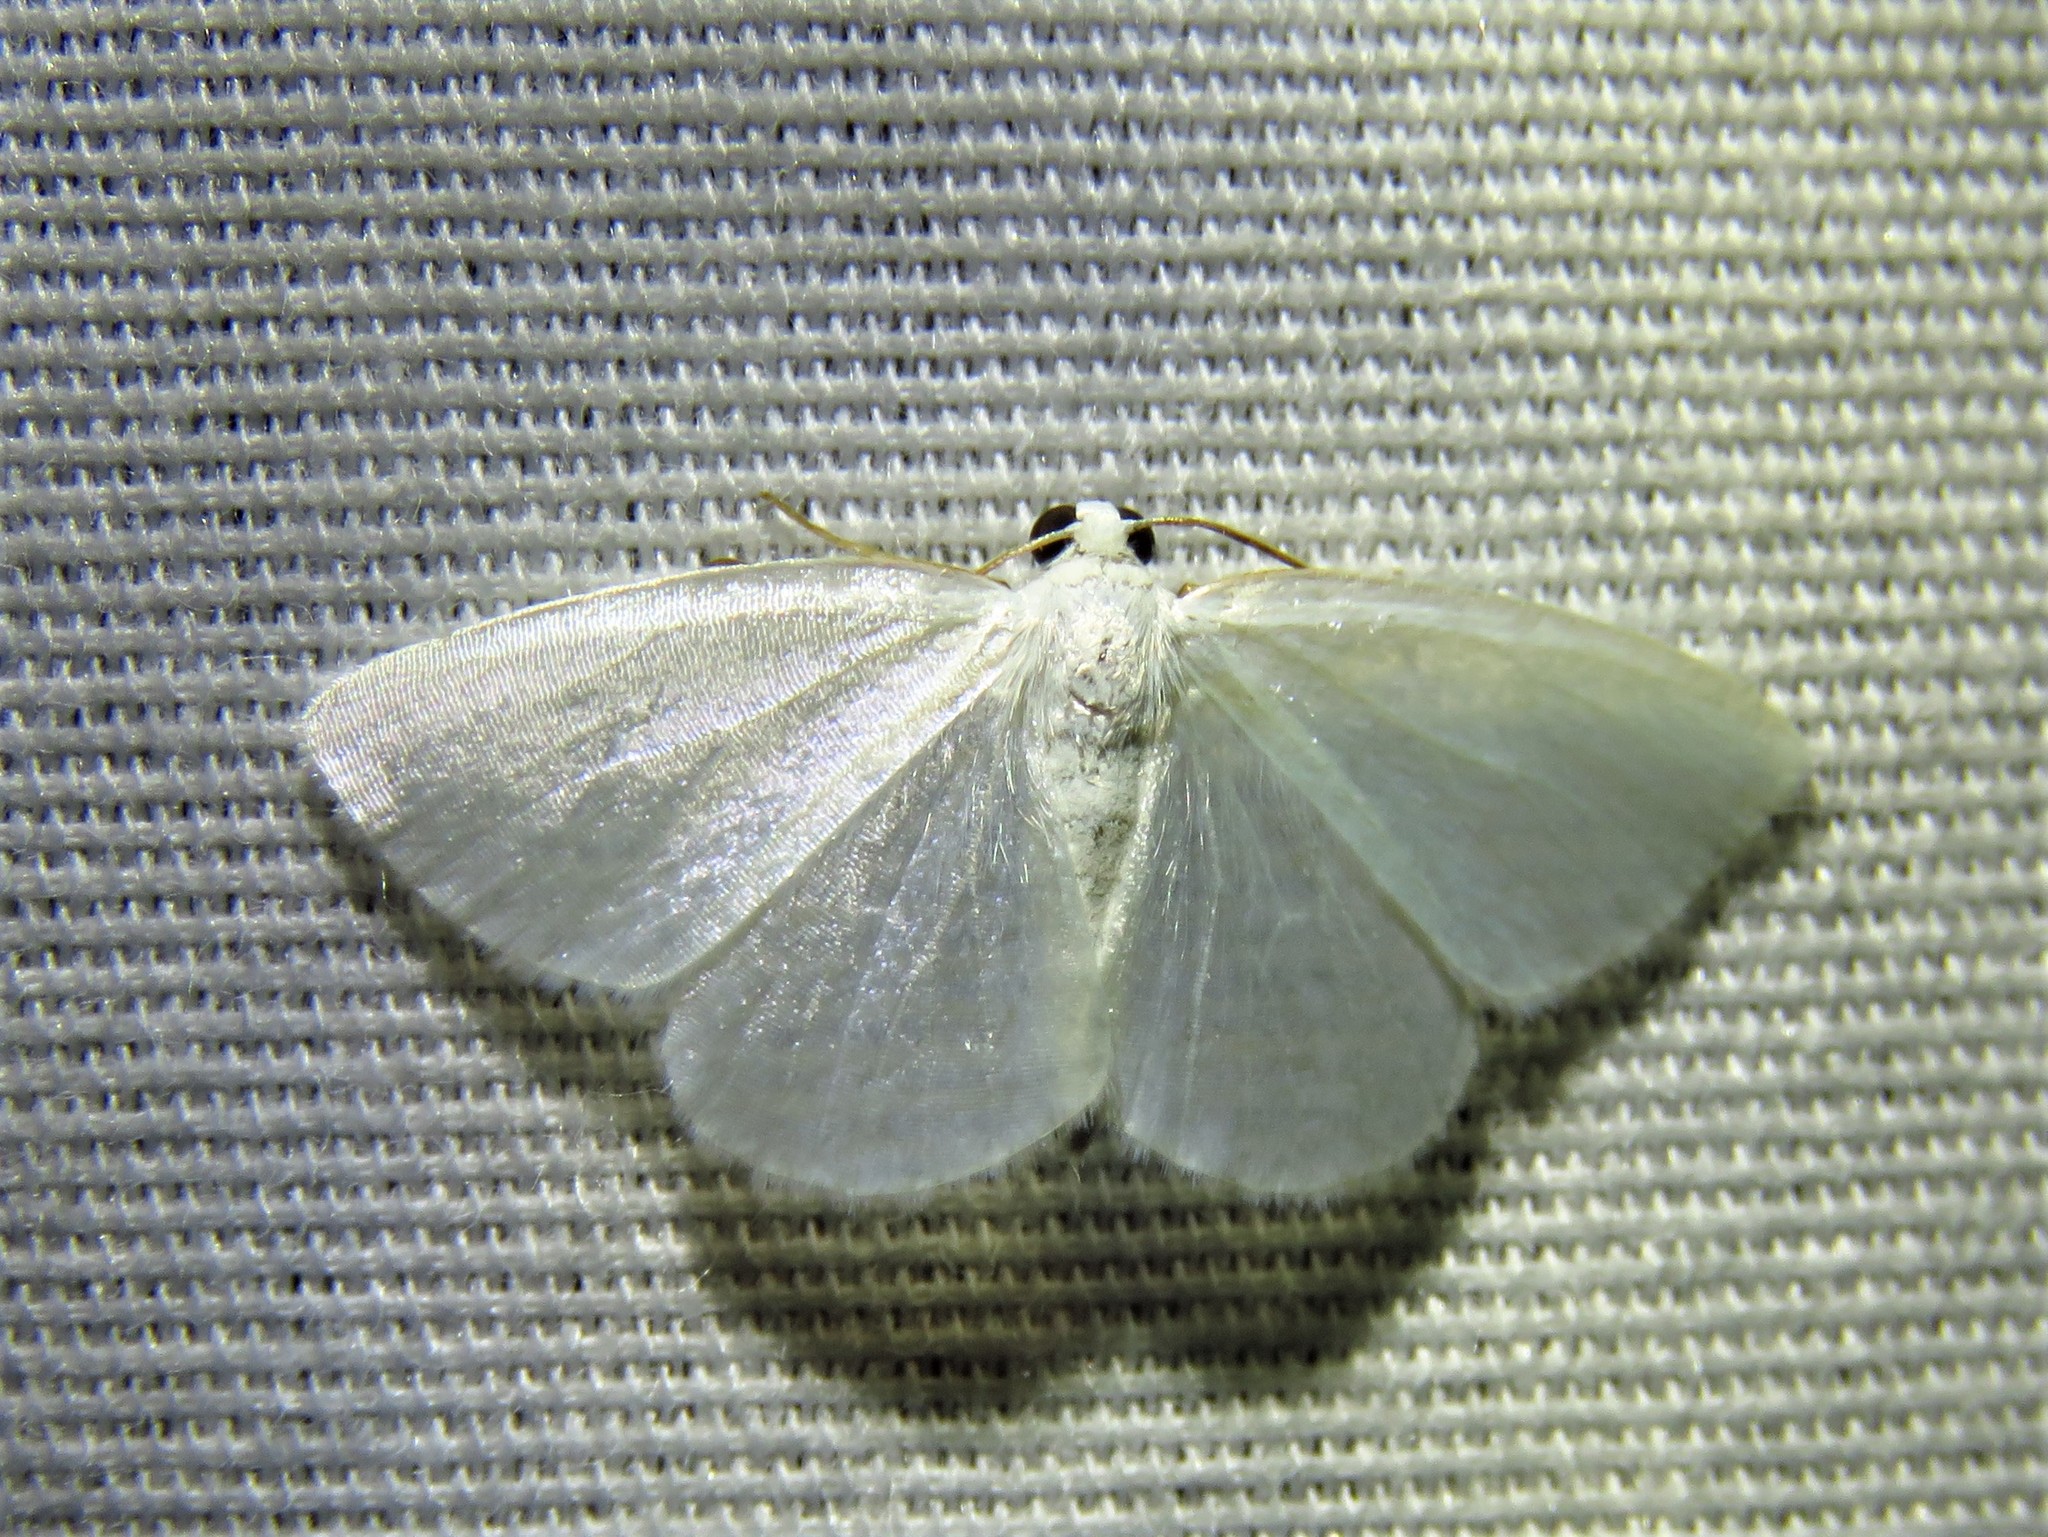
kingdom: Animalia
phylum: Arthropoda
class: Insecta
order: Lepidoptera
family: Geometridae
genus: Lomographa
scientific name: Lomographa vestaliata
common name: White spring moth
